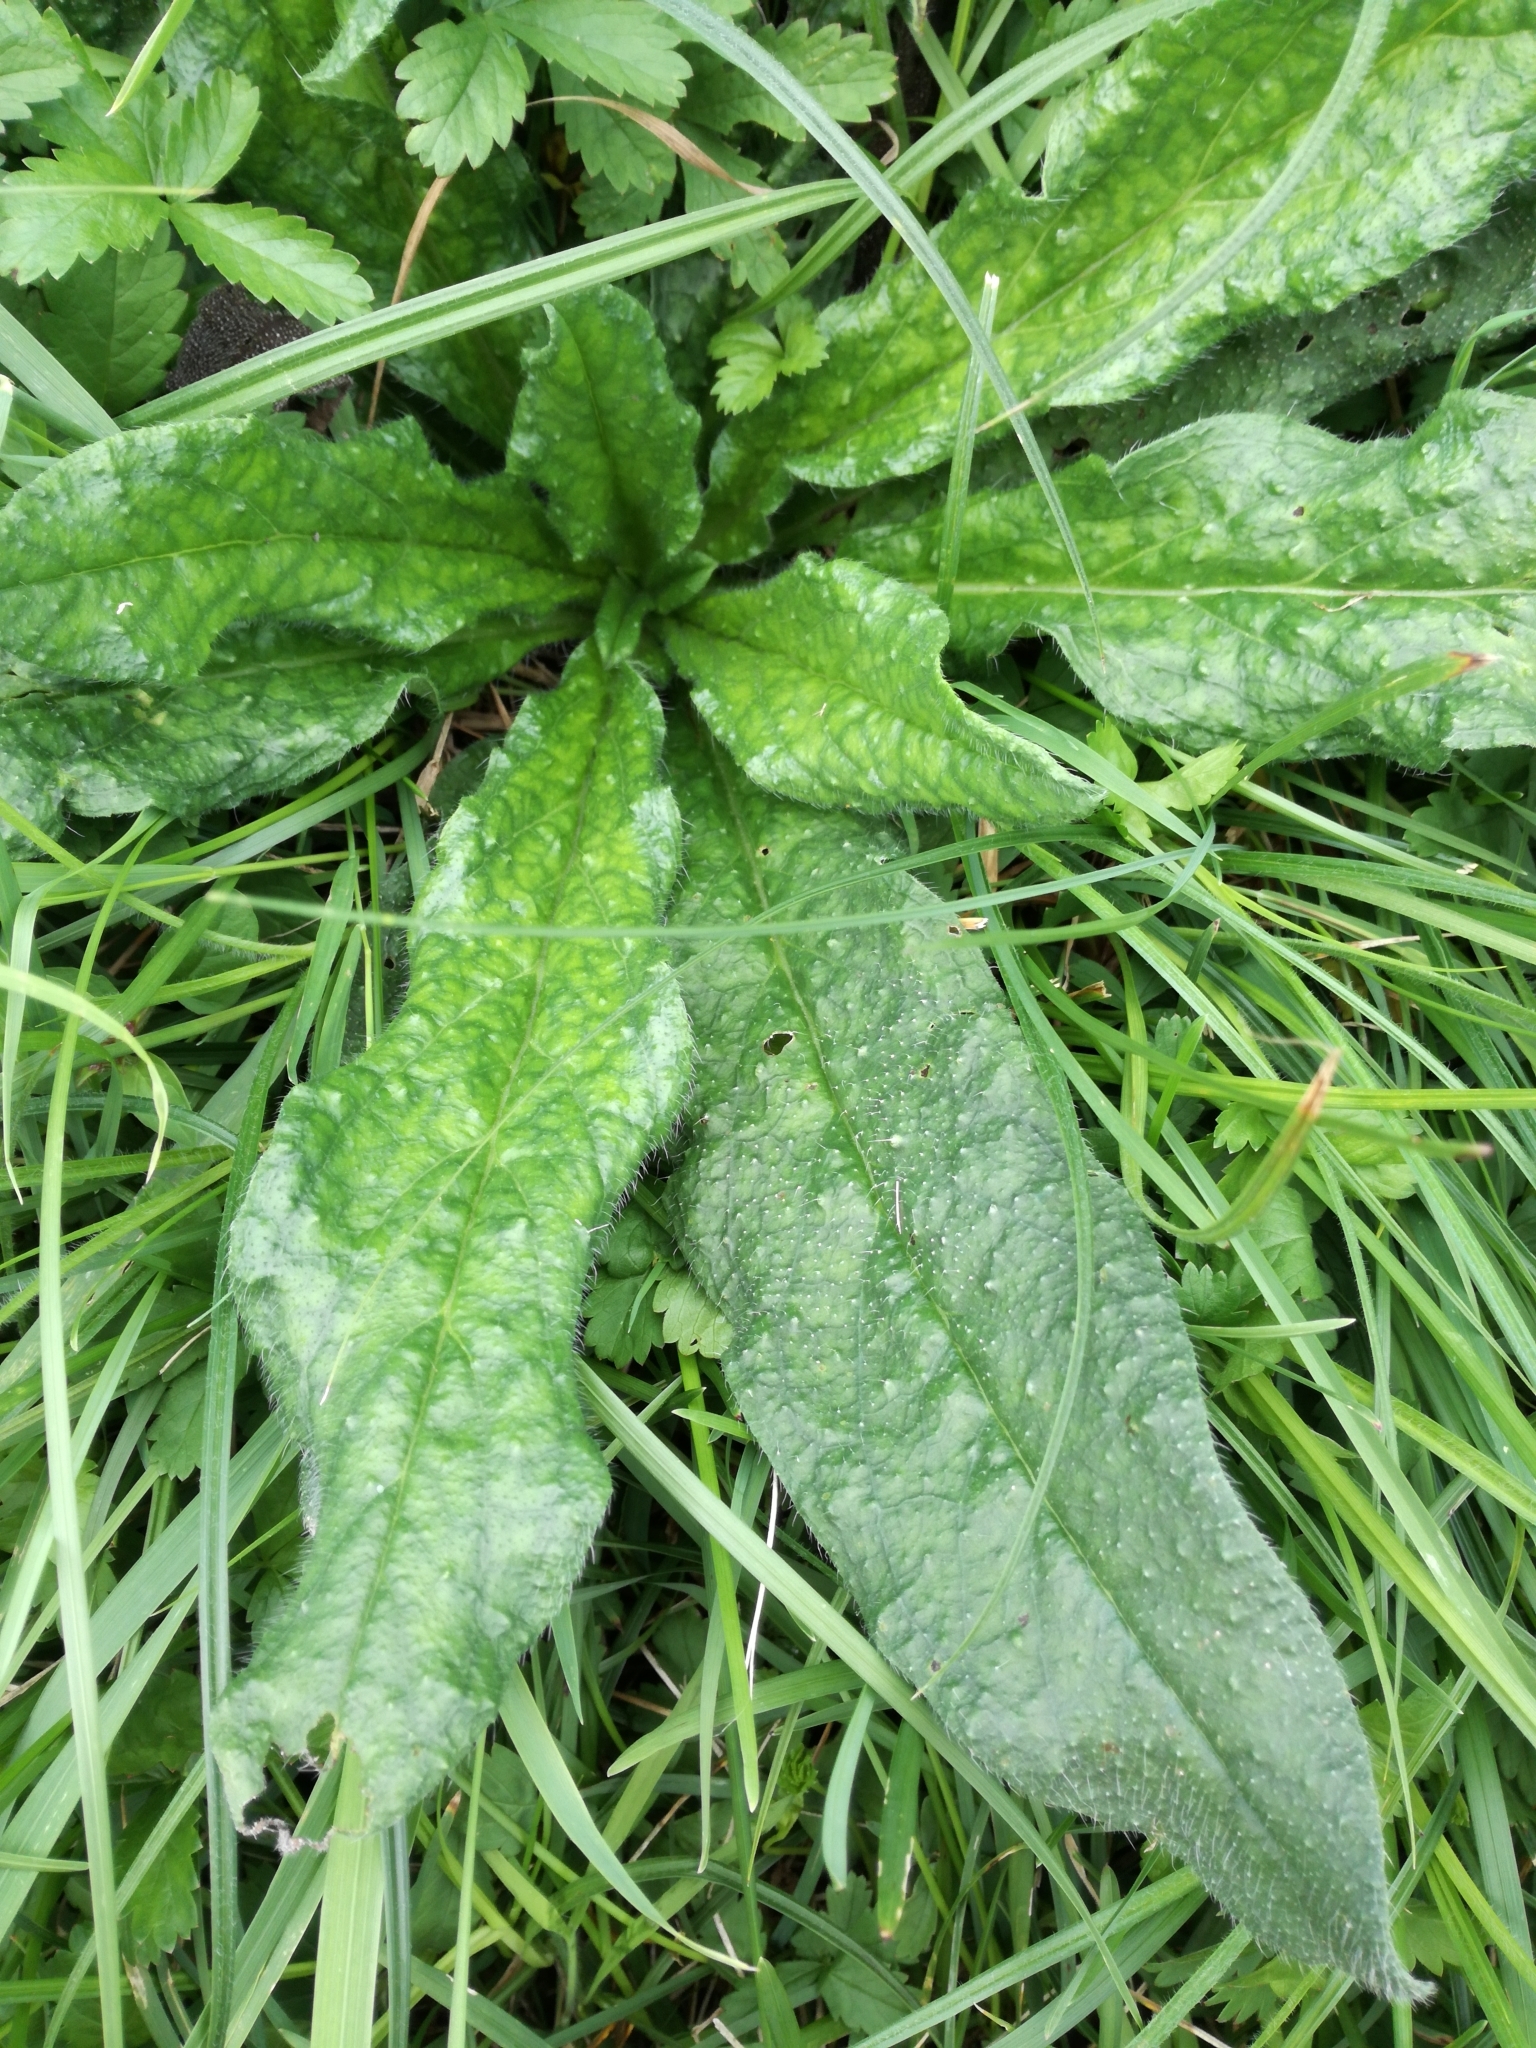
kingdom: Plantae
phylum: Tracheophyta
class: Magnoliopsida
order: Asterales
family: Asteraceae
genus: Helminthotheca
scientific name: Helminthotheca echioides
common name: Ox-tongue
